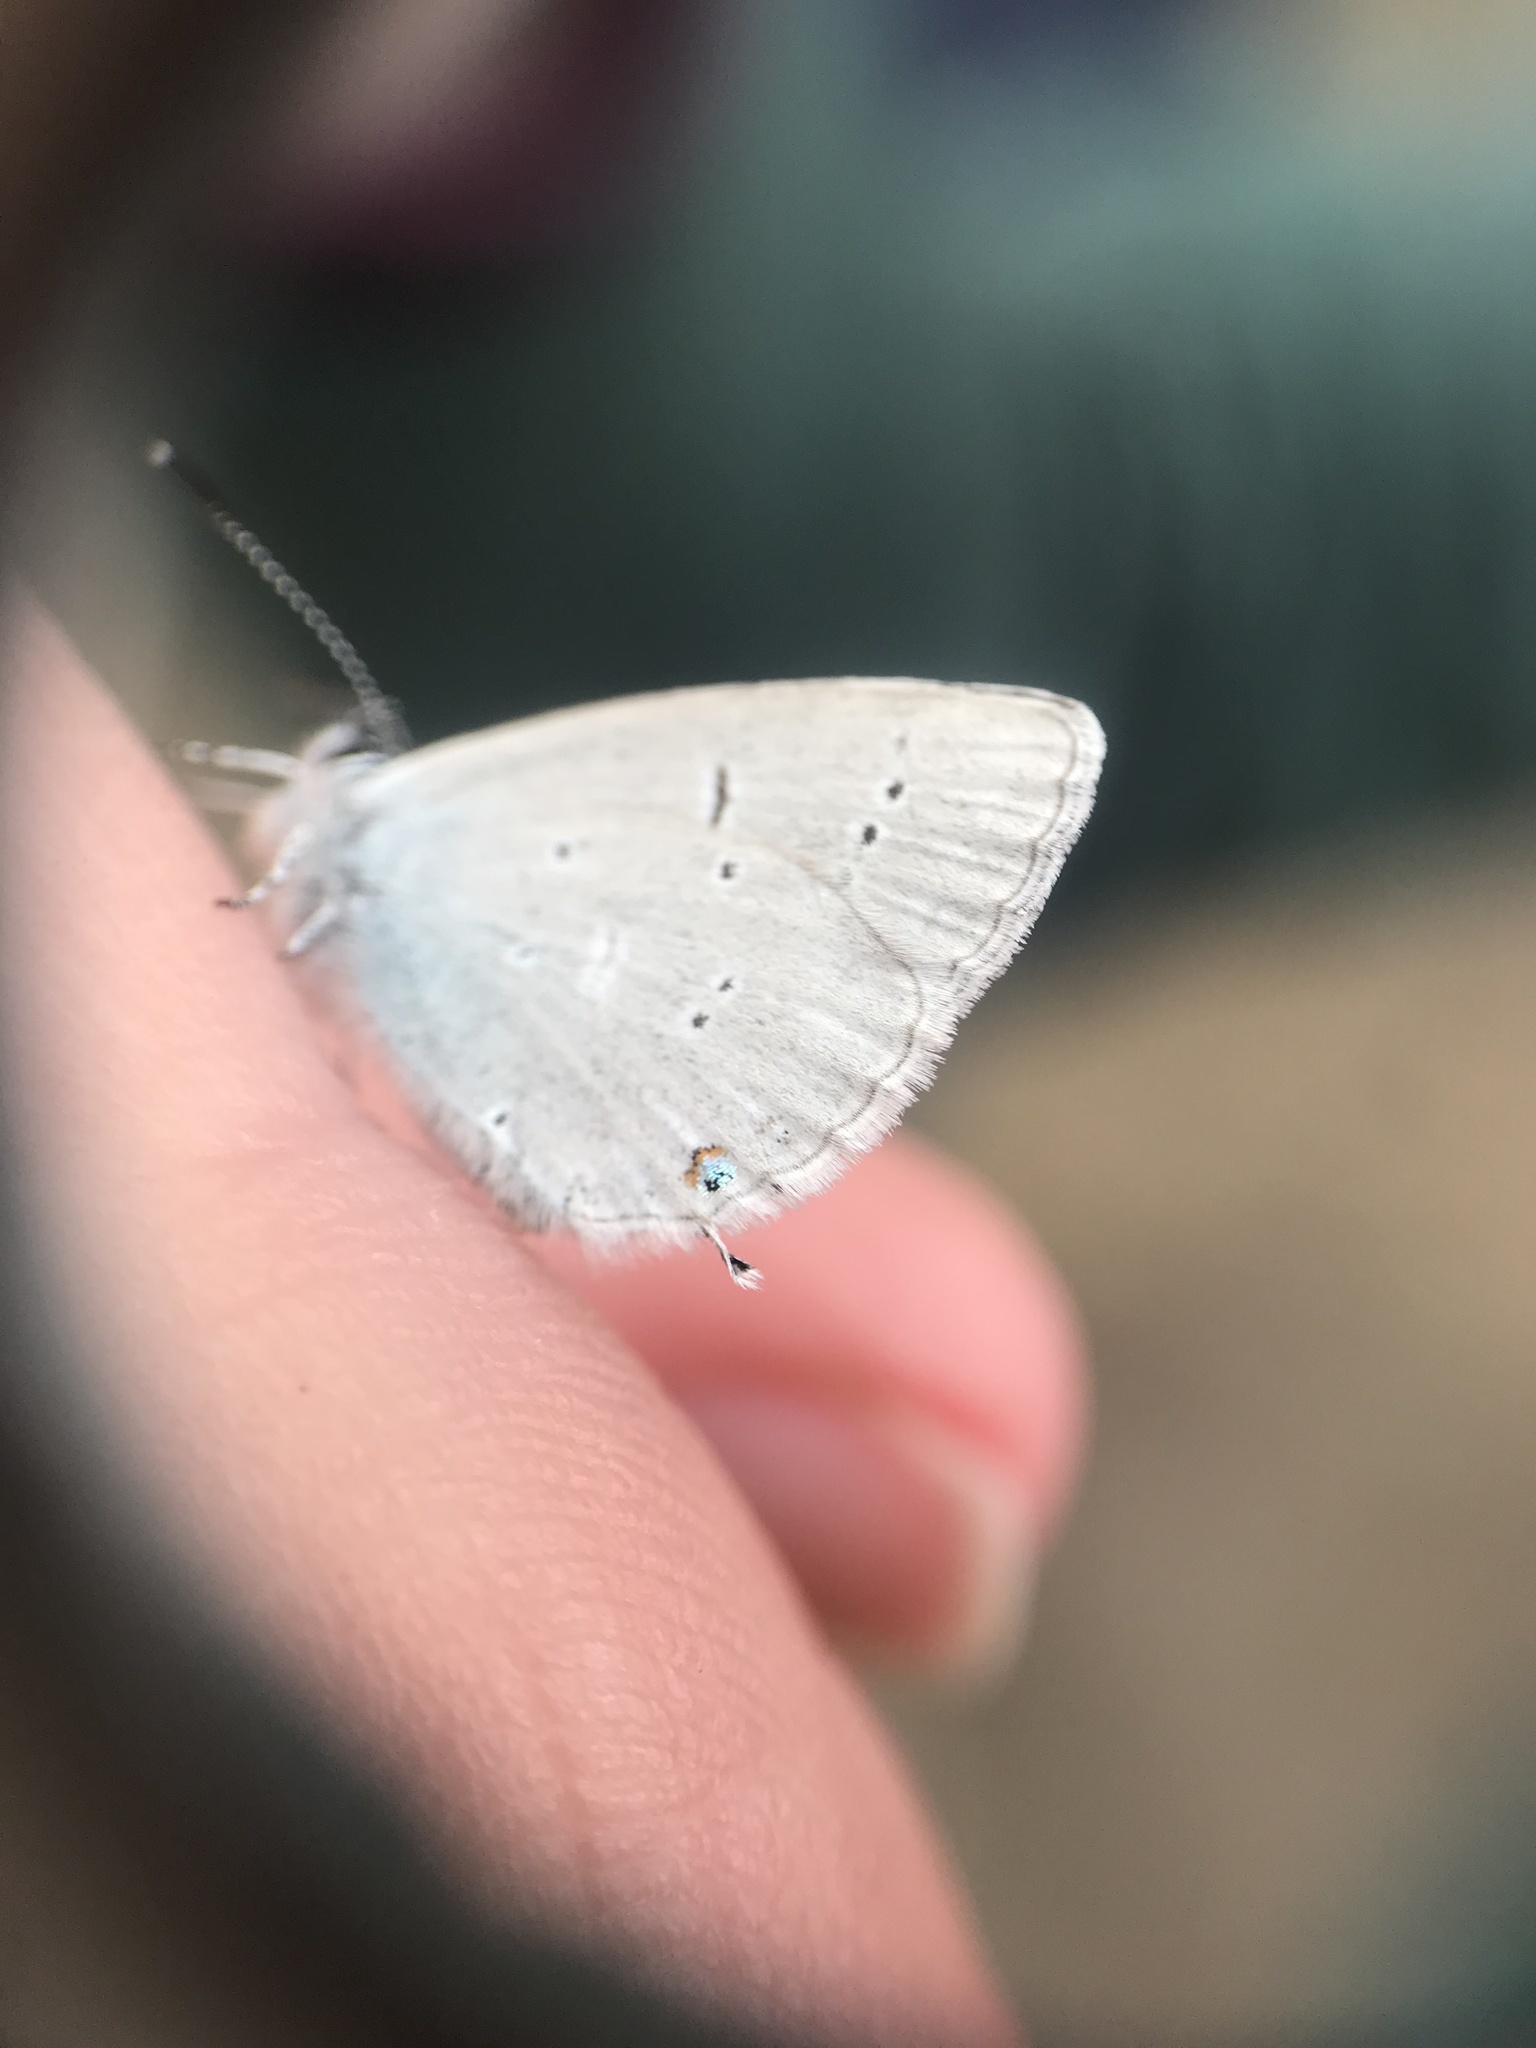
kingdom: Animalia
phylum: Arthropoda
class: Insecta
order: Lepidoptera
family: Lycaenidae
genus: Elkalyce
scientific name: Elkalyce amyntula
